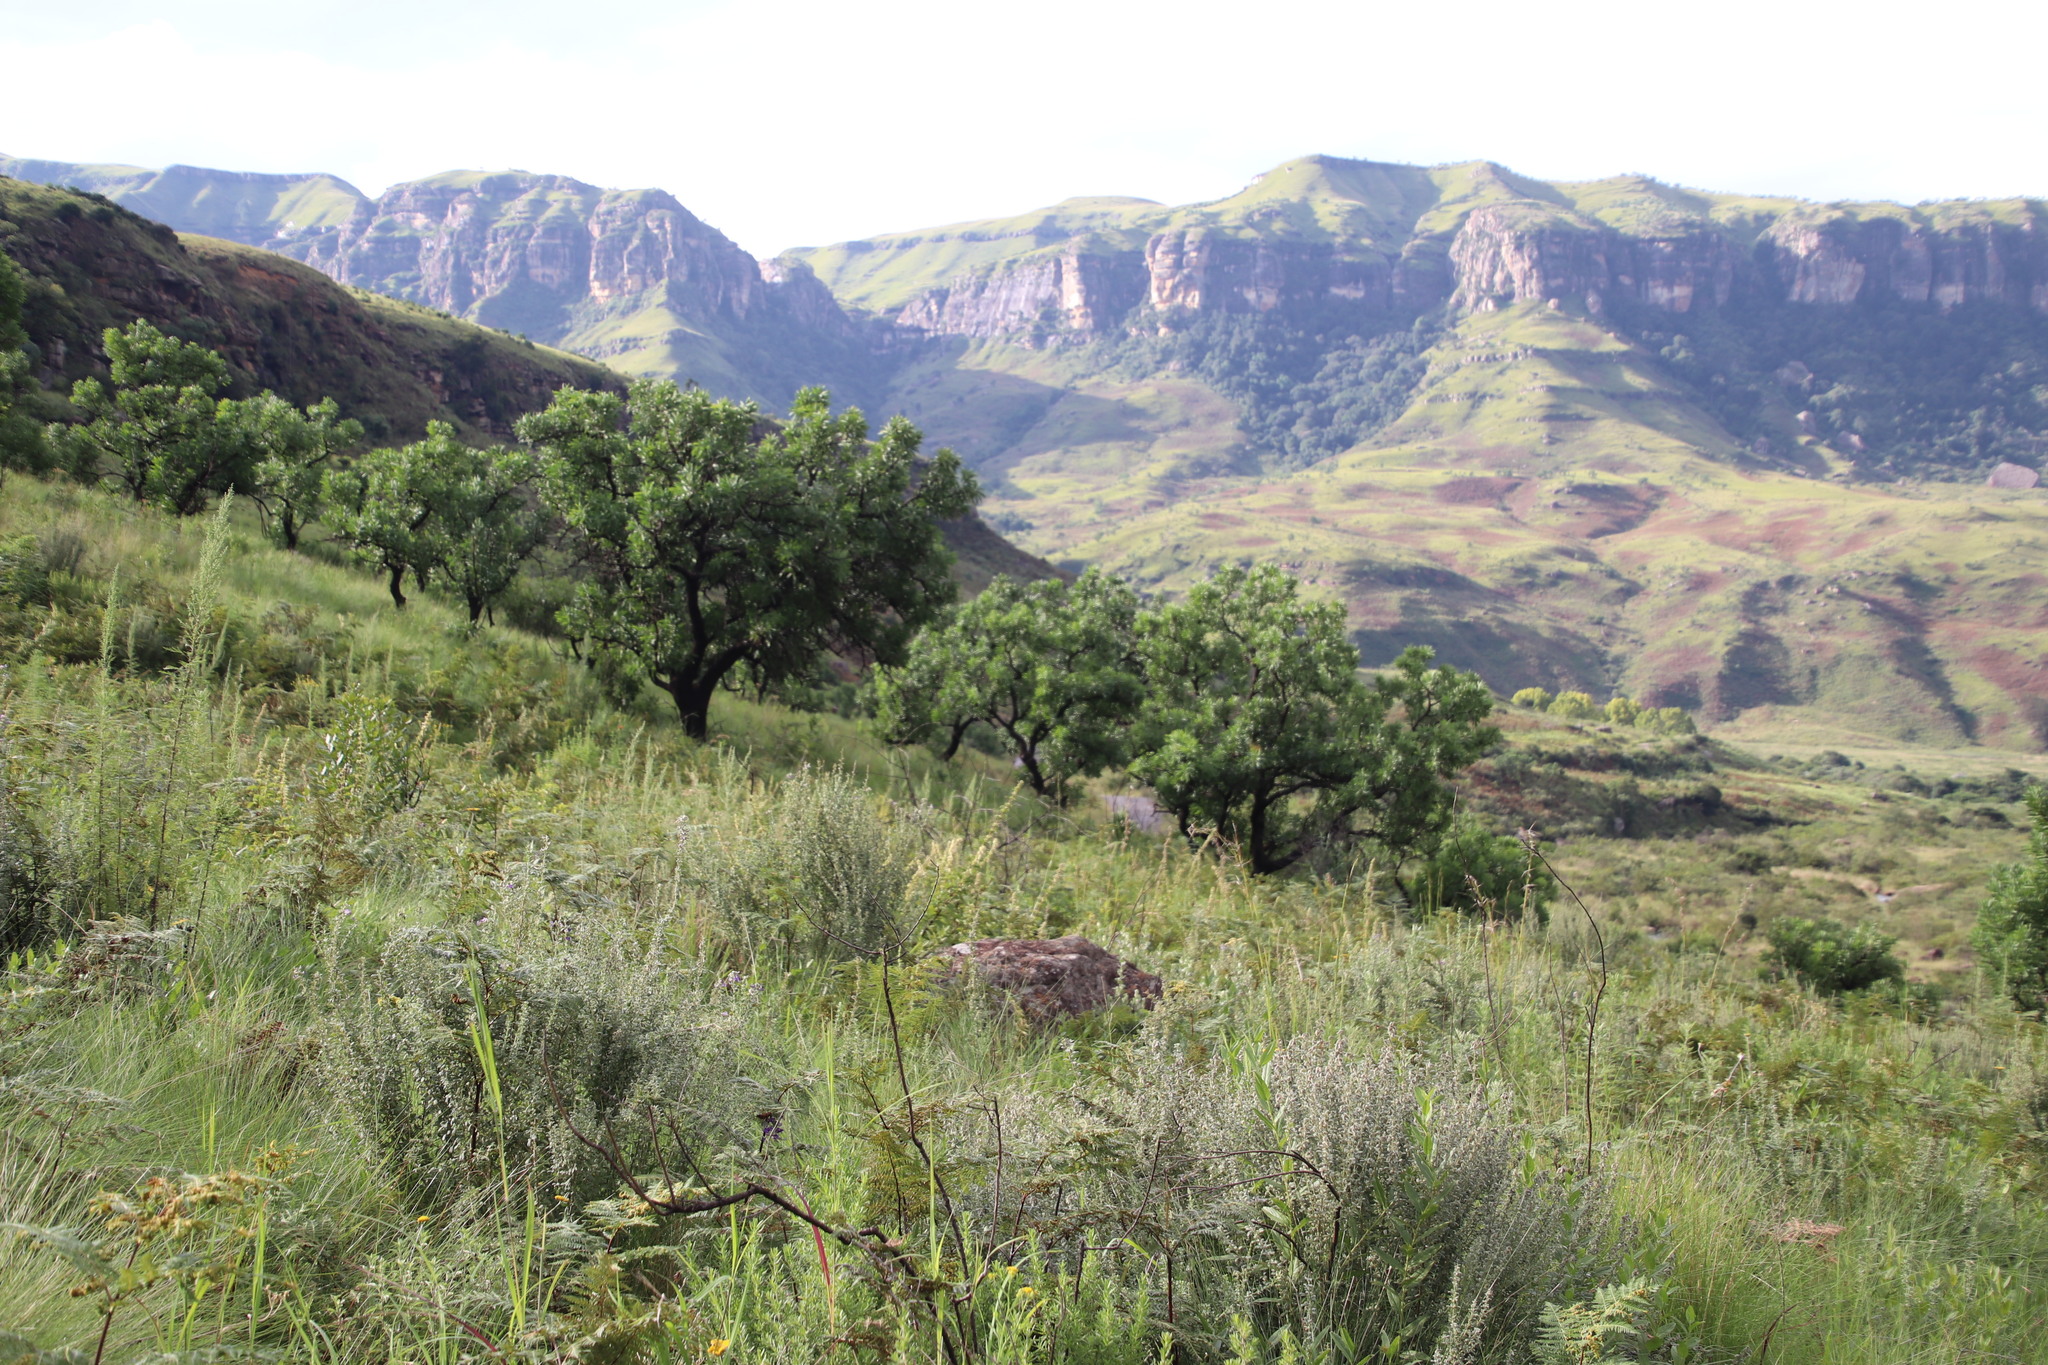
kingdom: Plantae
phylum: Tracheophyta
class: Magnoliopsida
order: Proteales
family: Proteaceae
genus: Protea
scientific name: Protea caffra
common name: Common sugarbush
